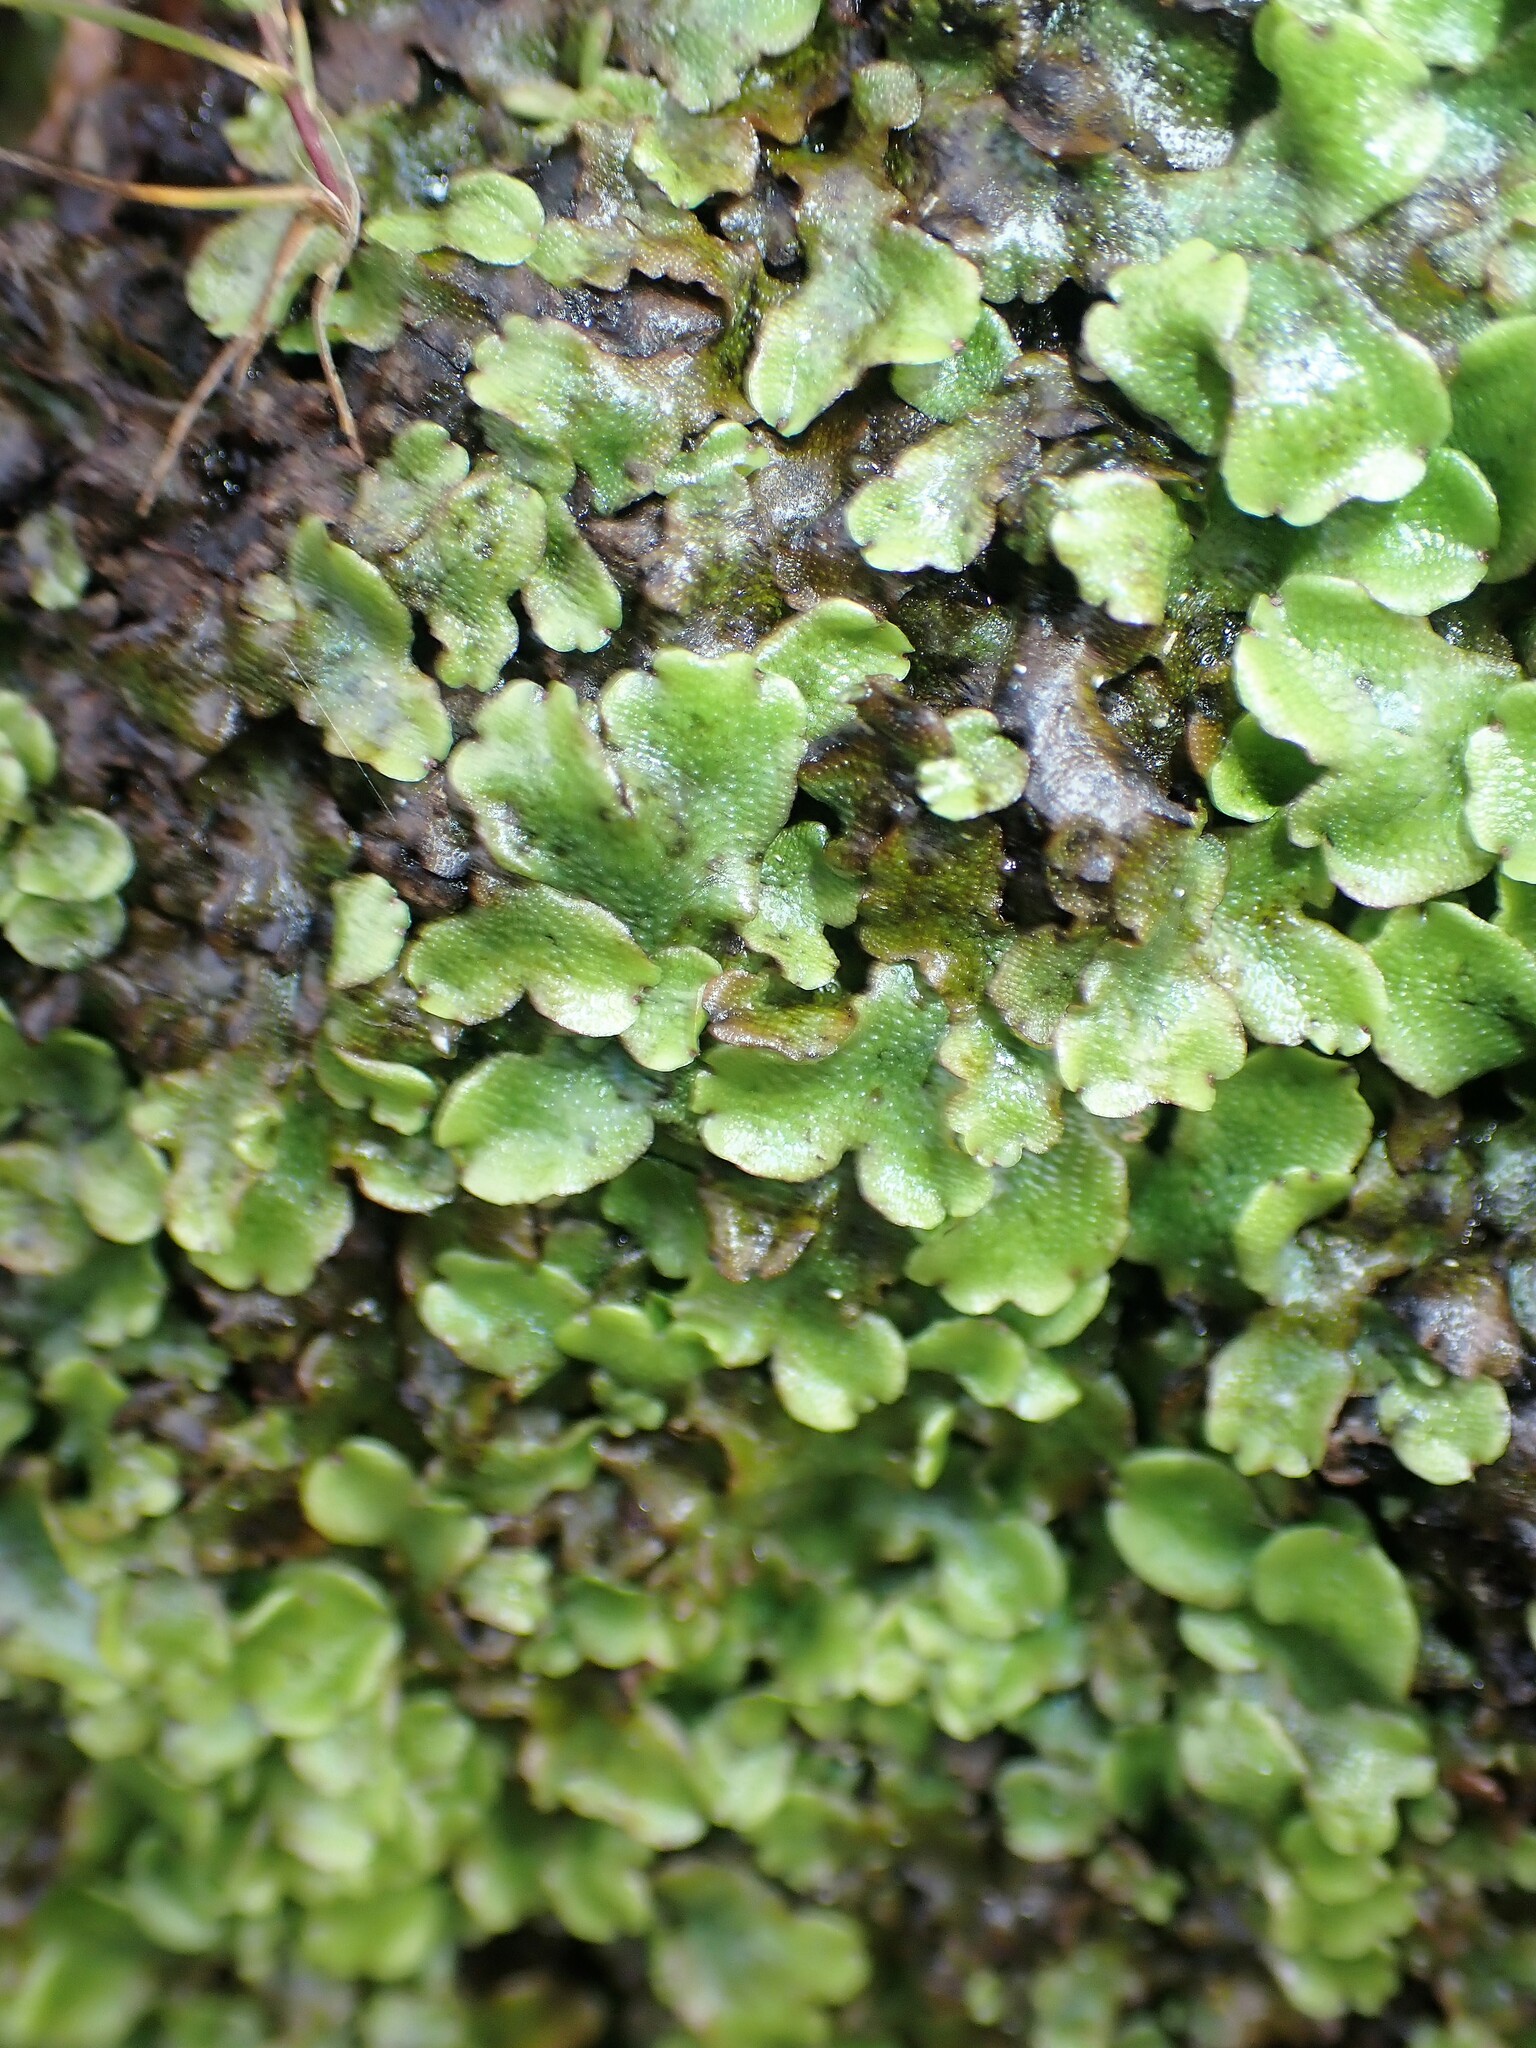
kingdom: Plantae
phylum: Marchantiophyta
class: Marchantiopsida
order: Marchantiales
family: Conocephalaceae
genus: Conocephalum
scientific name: Conocephalum conicum
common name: Great scented liverwort
